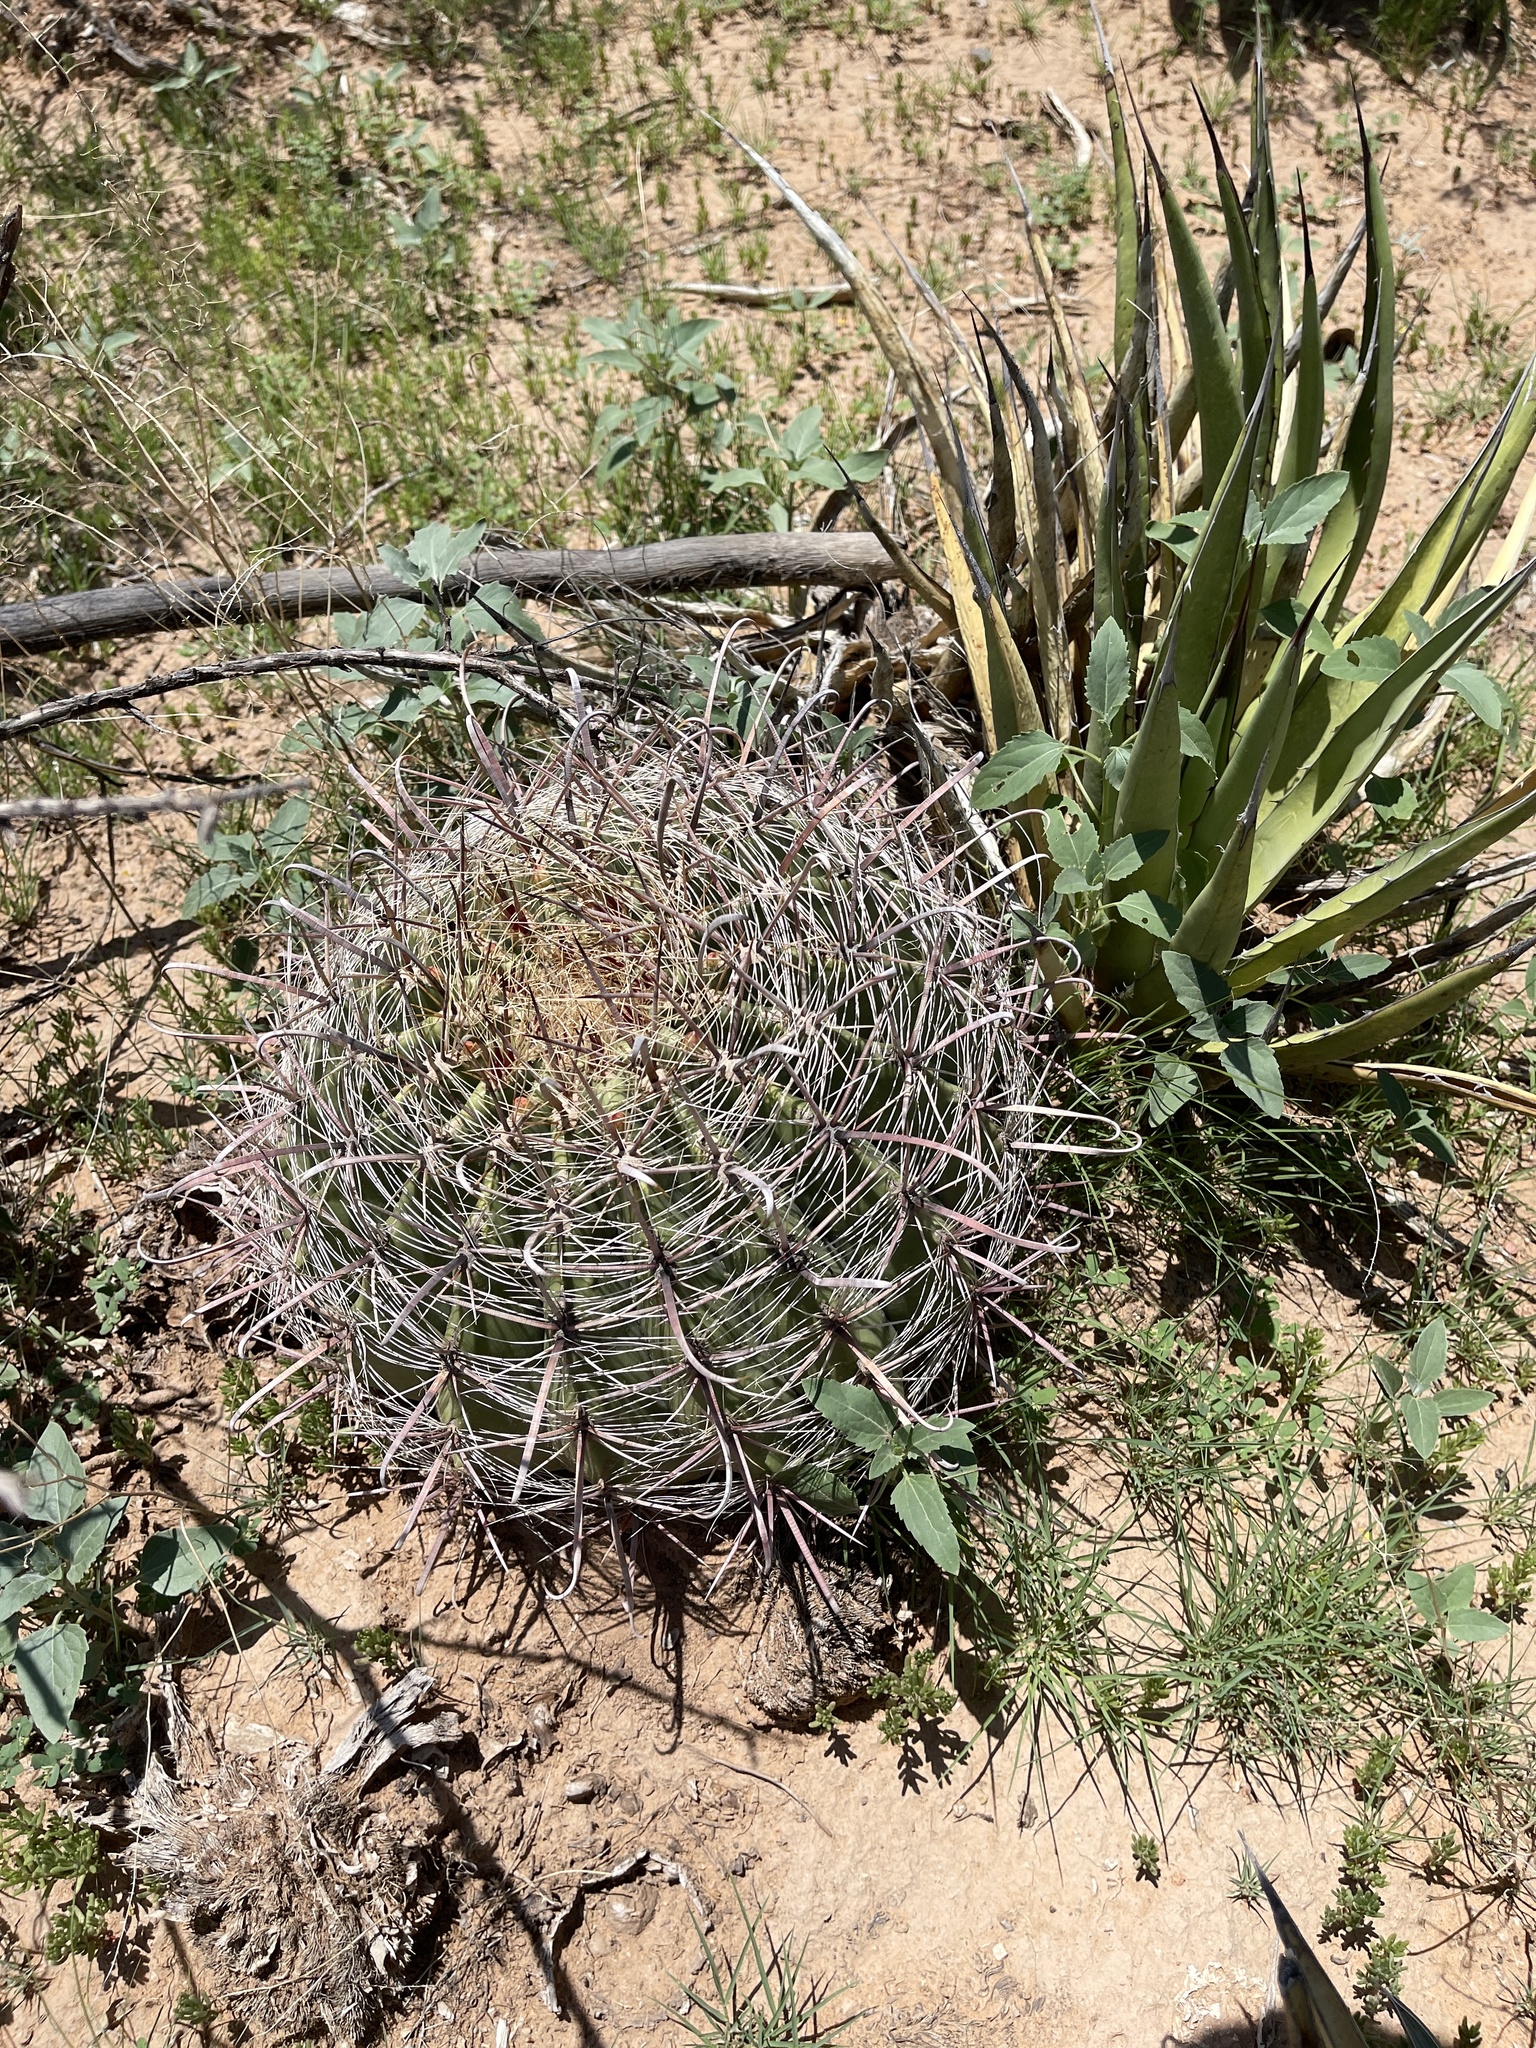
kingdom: Plantae
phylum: Tracheophyta
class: Magnoliopsida
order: Caryophyllales
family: Cactaceae
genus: Ferocactus
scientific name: Ferocactus wislizeni
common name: Candy barrel cactus
